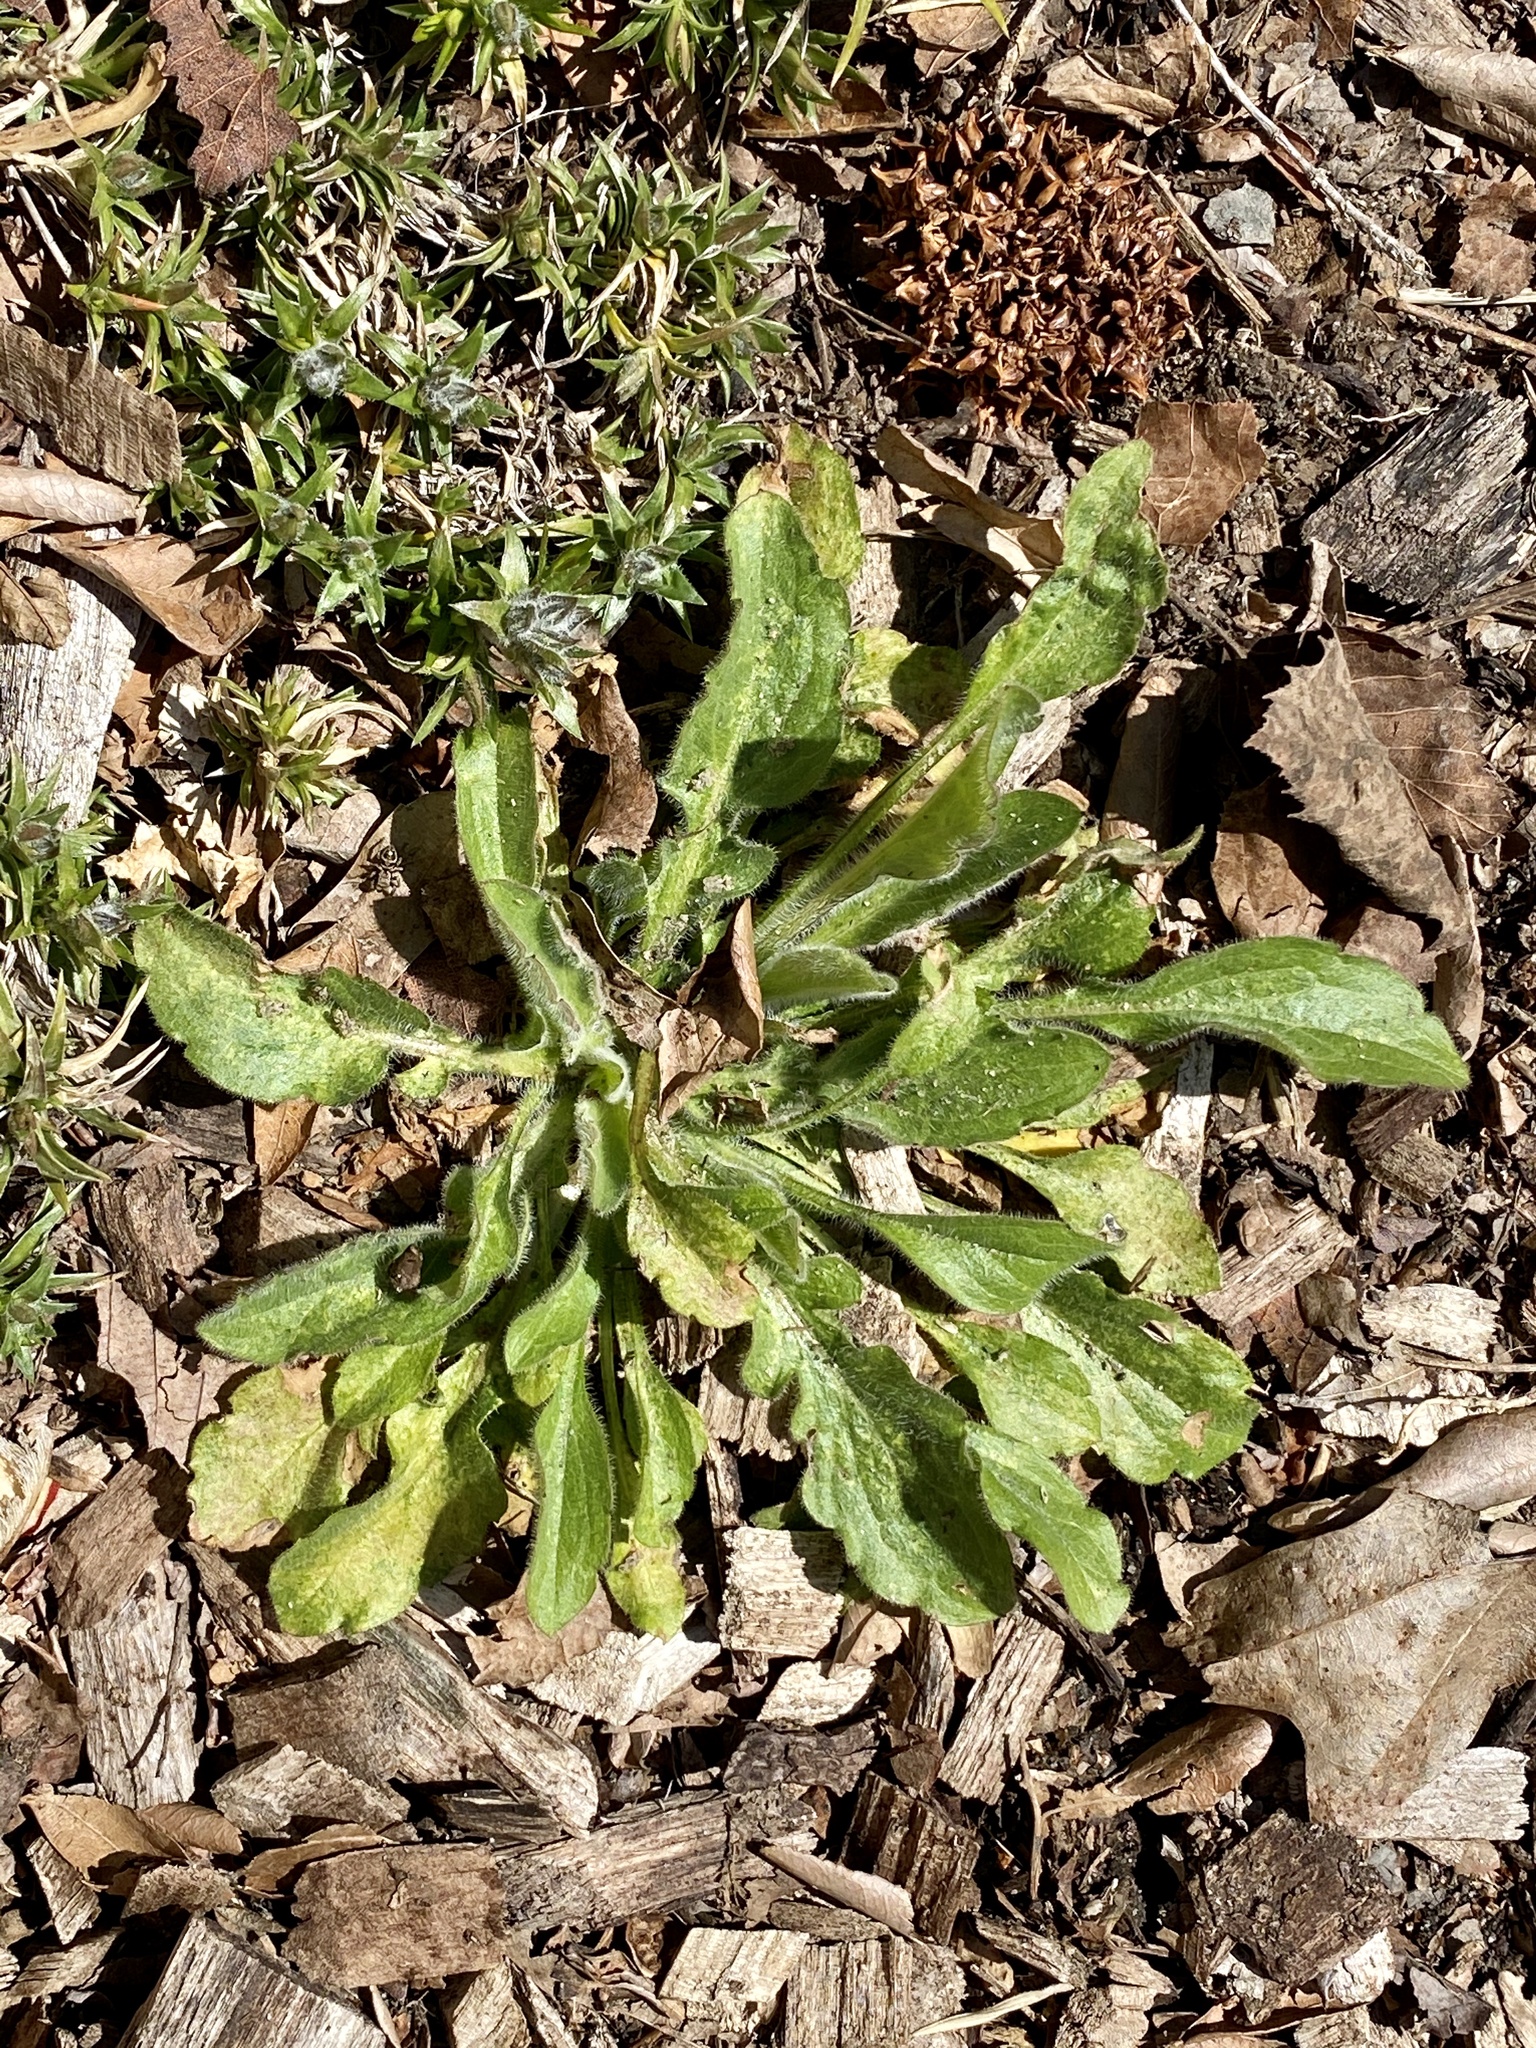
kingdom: Plantae
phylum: Tracheophyta
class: Magnoliopsida
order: Asterales
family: Asteraceae
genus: Erigeron
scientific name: Erigeron canadensis
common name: Canadian fleabane
